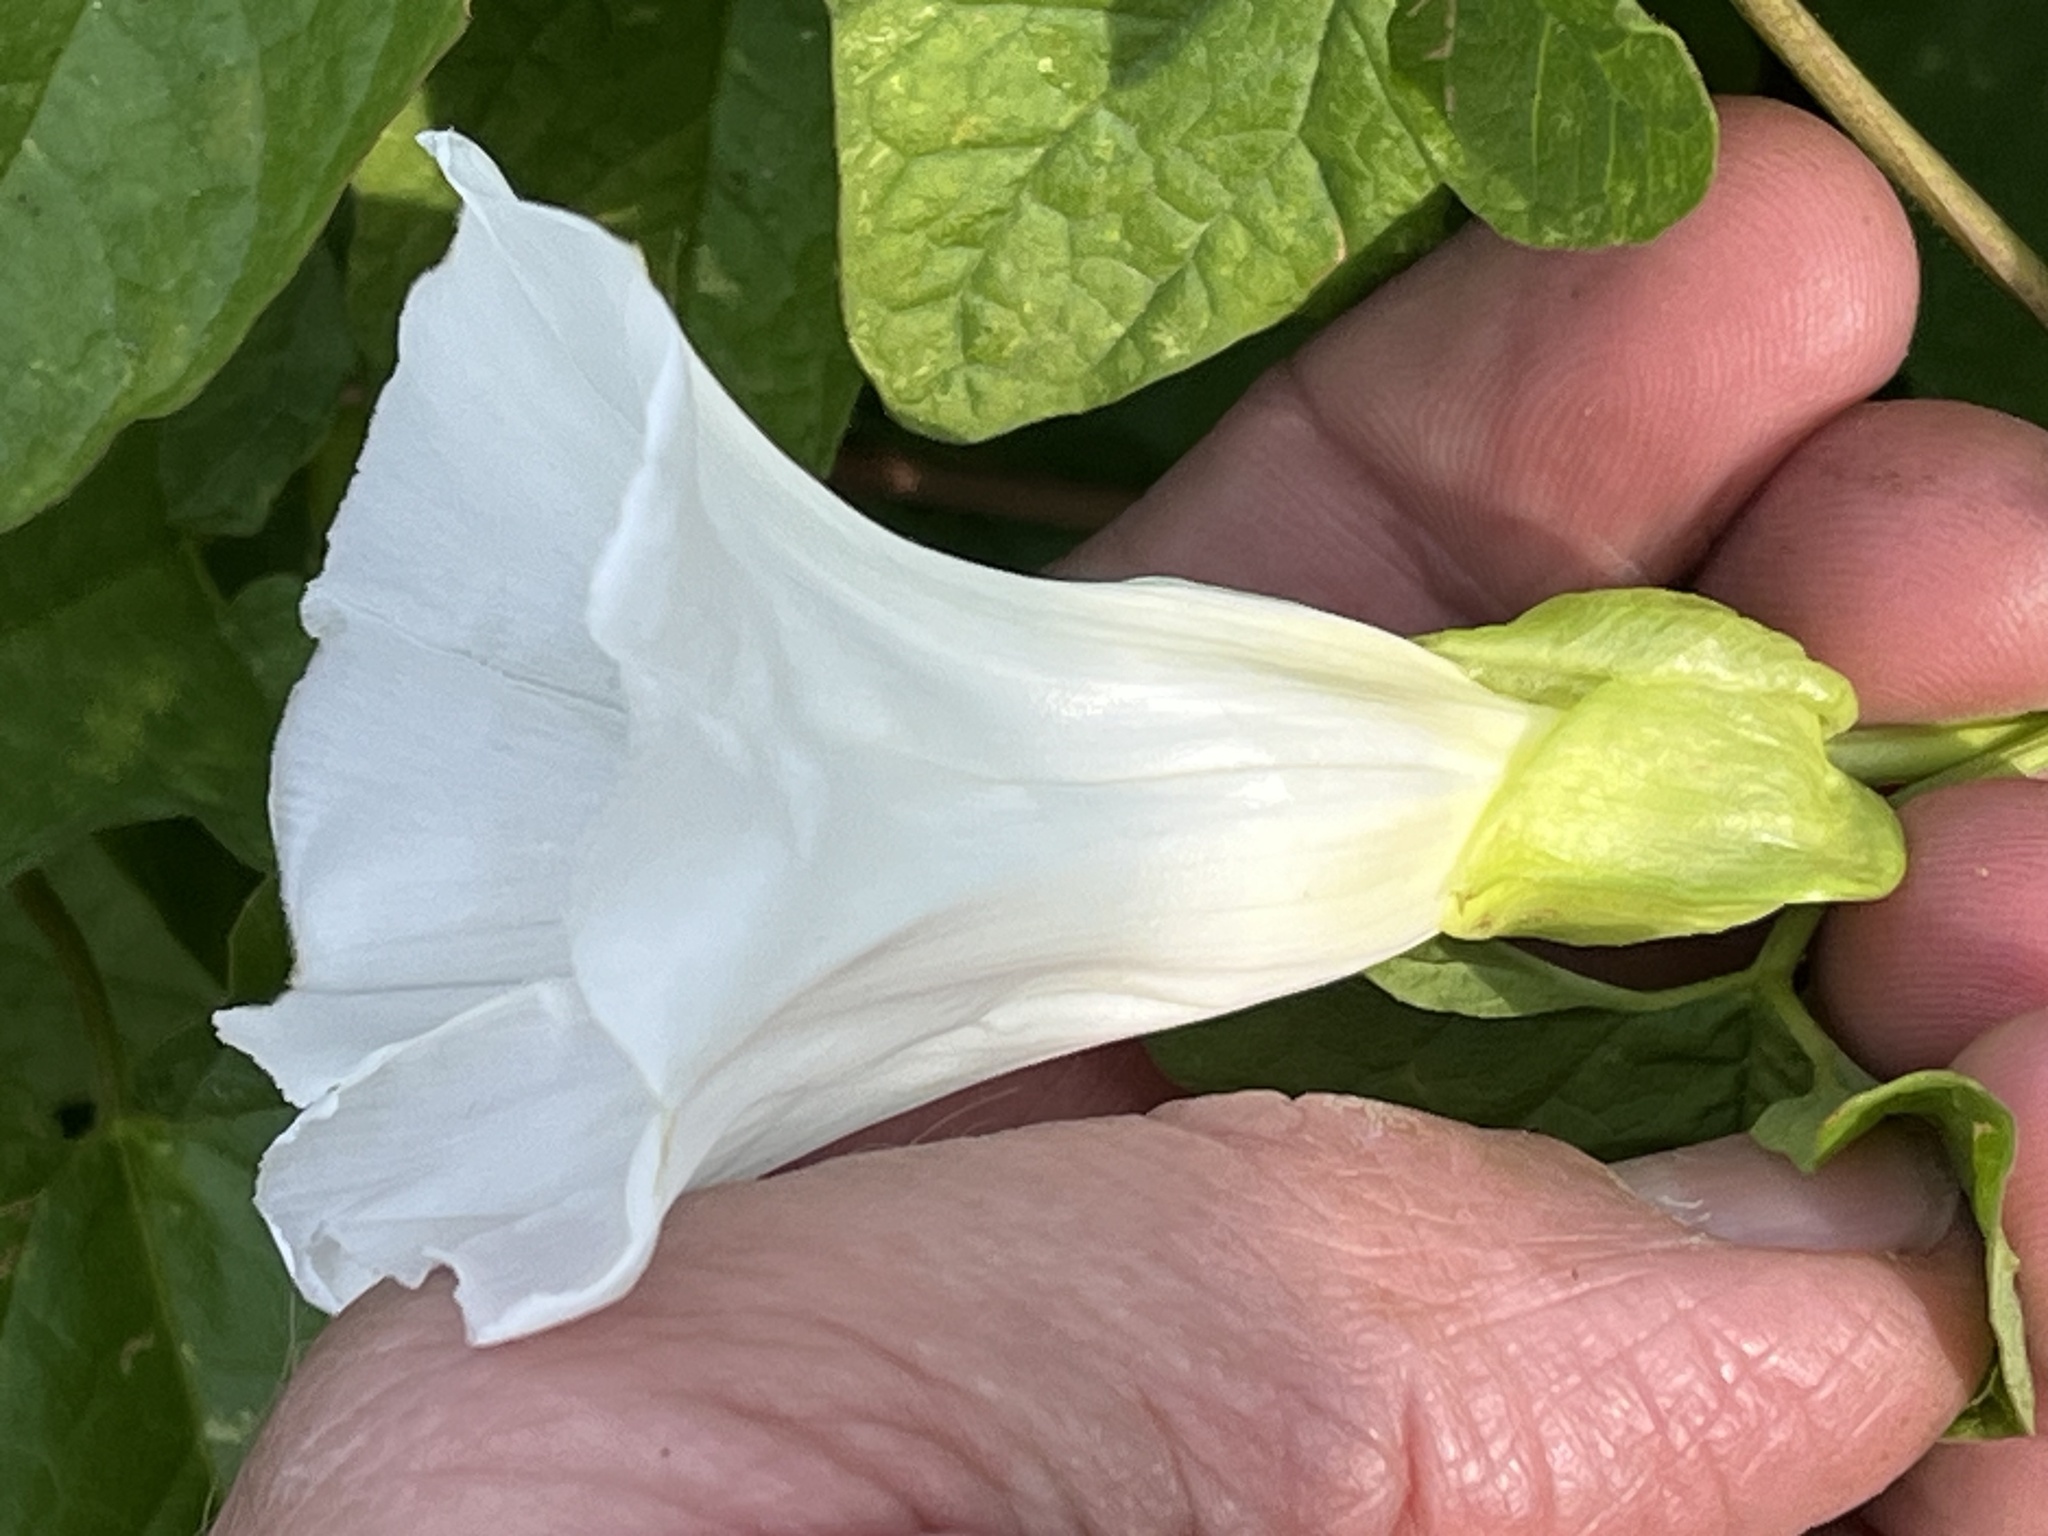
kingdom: Plantae
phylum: Tracheophyta
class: Magnoliopsida
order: Solanales
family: Convolvulaceae
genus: Calystegia
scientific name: Calystegia sepium
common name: Hedge bindweed
